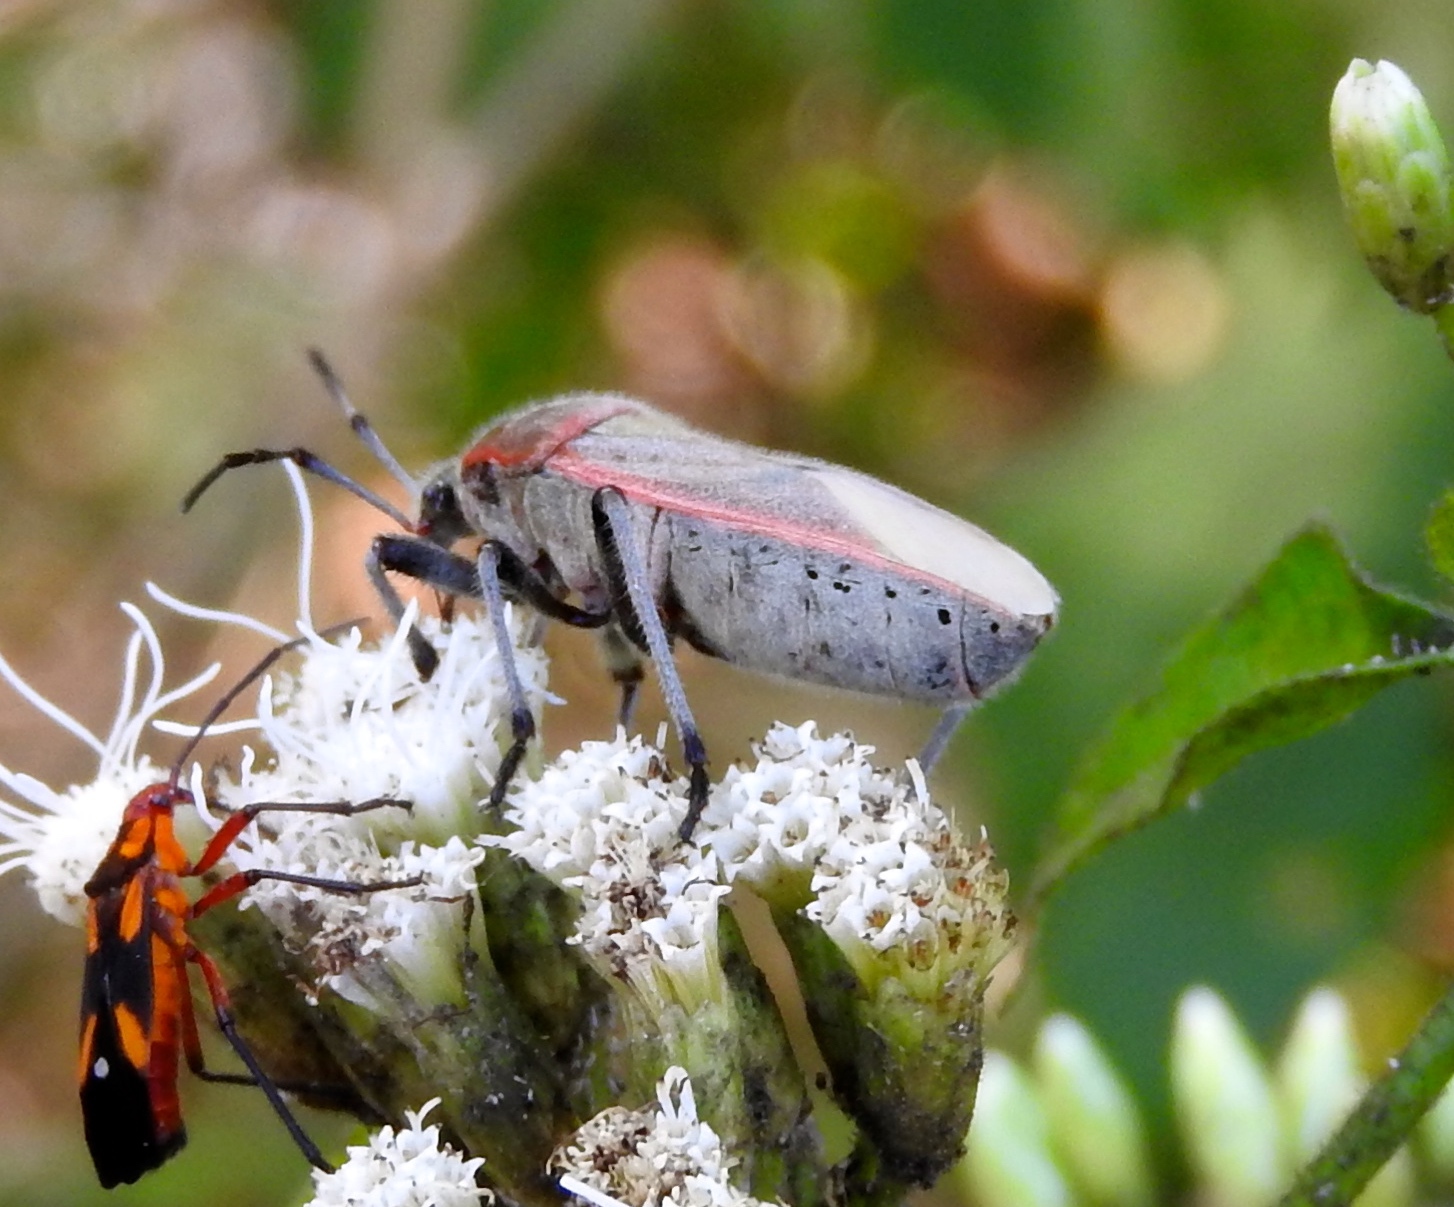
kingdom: Animalia
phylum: Arthropoda
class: Insecta
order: Hemiptera
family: Largidae
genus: Largus
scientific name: Largus
